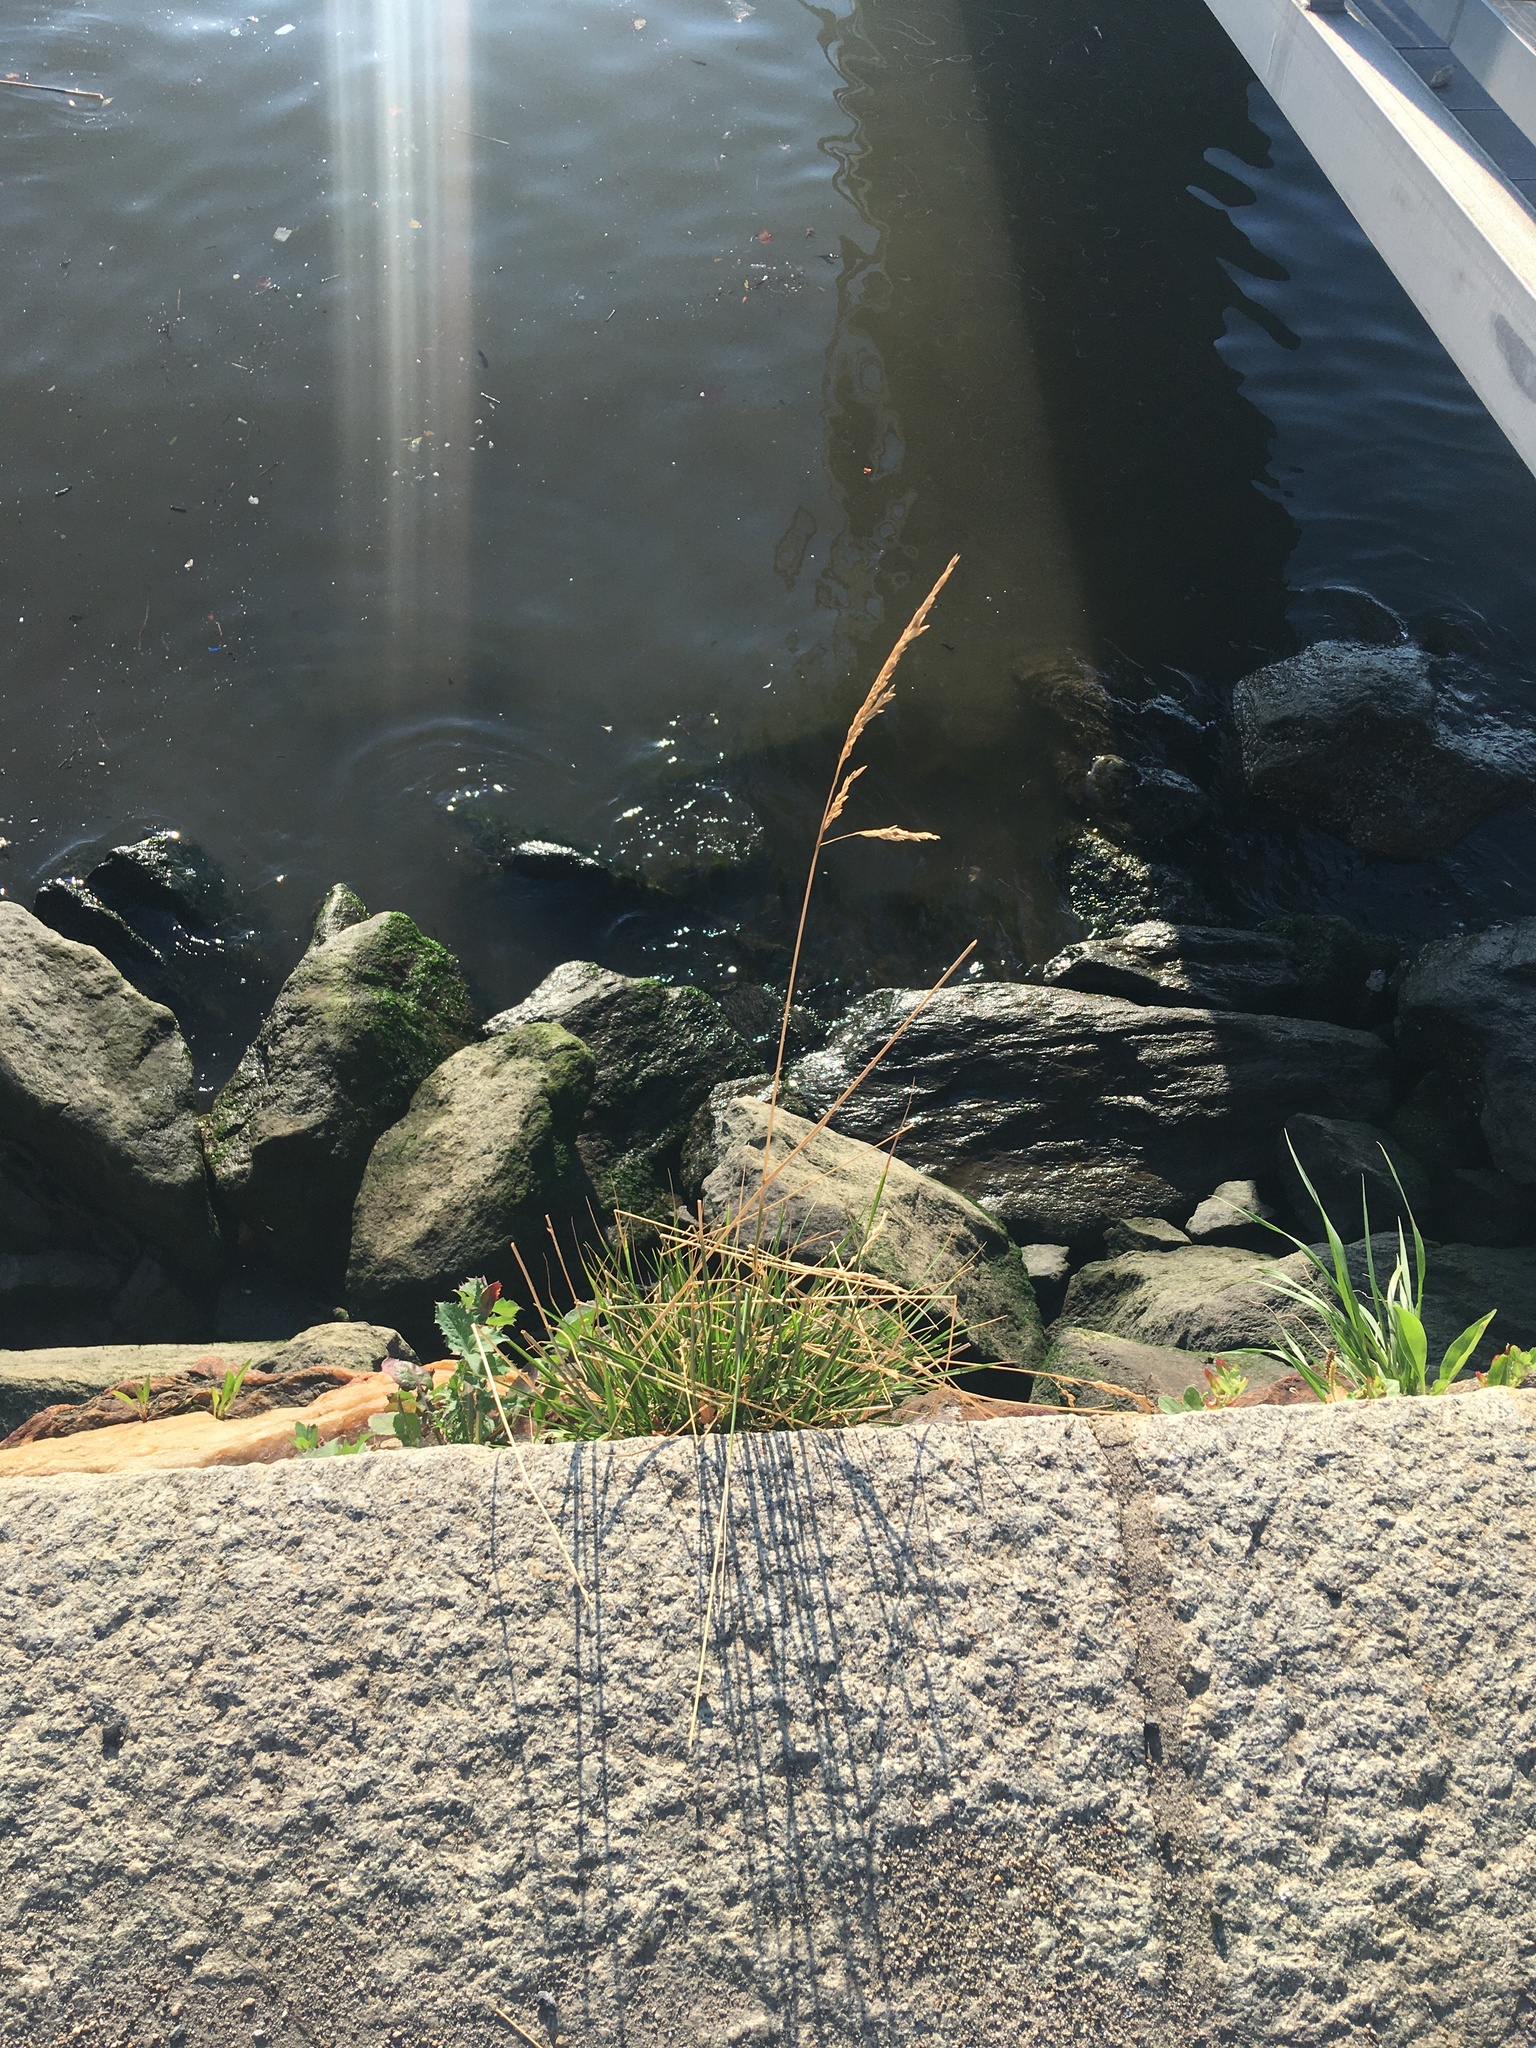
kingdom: Plantae
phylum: Tracheophyta
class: Liliopsida
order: Poales
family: Poaceae
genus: Lolium
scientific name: Lolium arundinaceum
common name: Reed fescue
